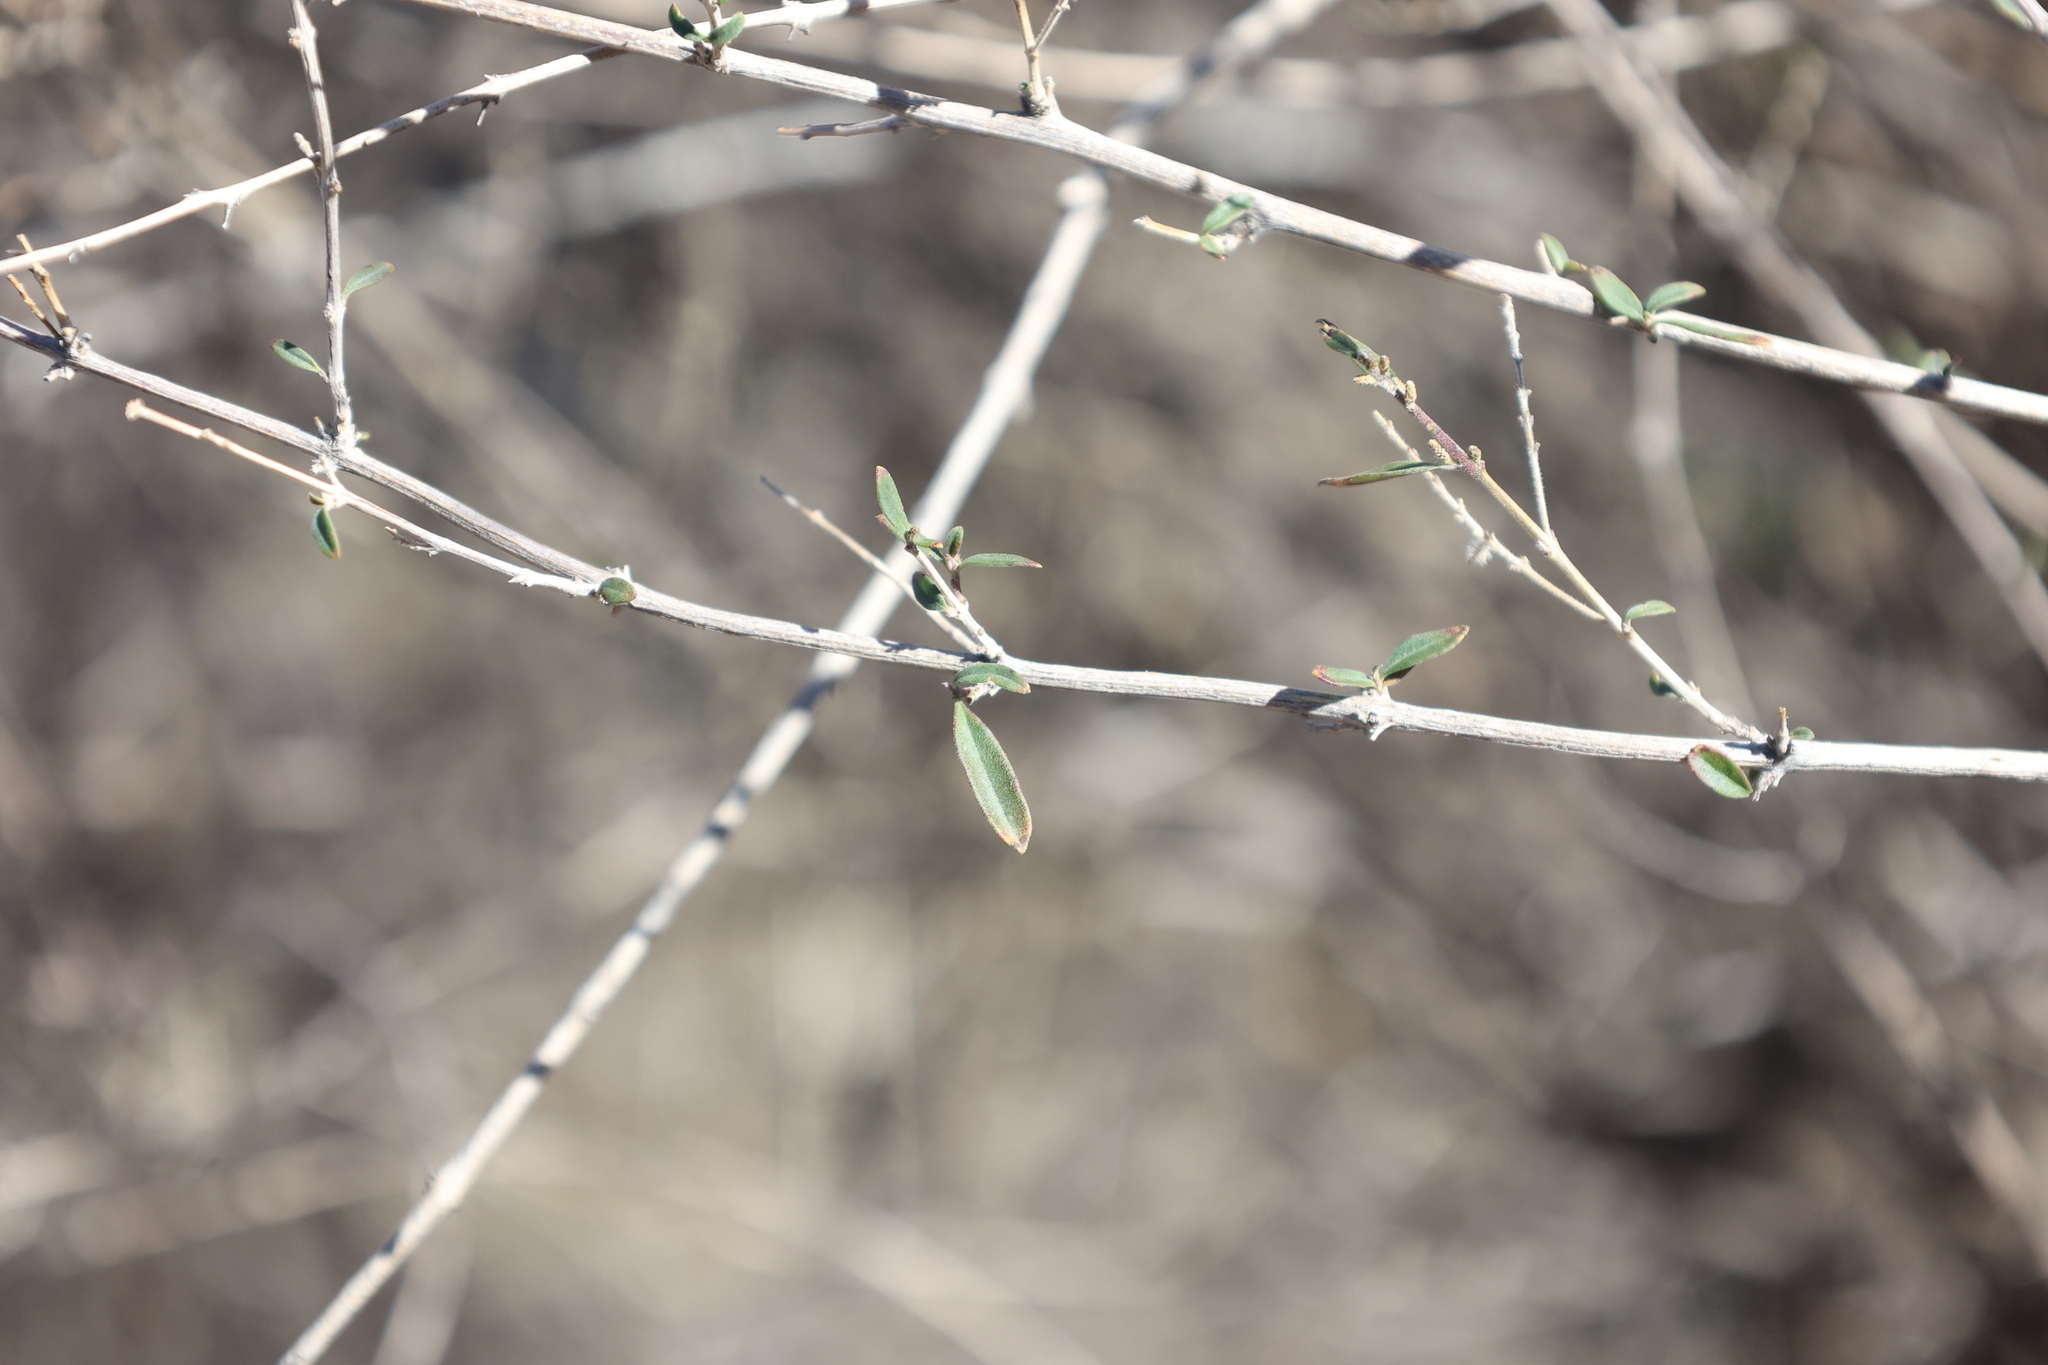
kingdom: Plantae
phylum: Tracheophyta
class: Magnoliopsida
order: Lamiales
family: Verbenaceae
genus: Aloysia
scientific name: Aloysia gratissima
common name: Common bee-brush
